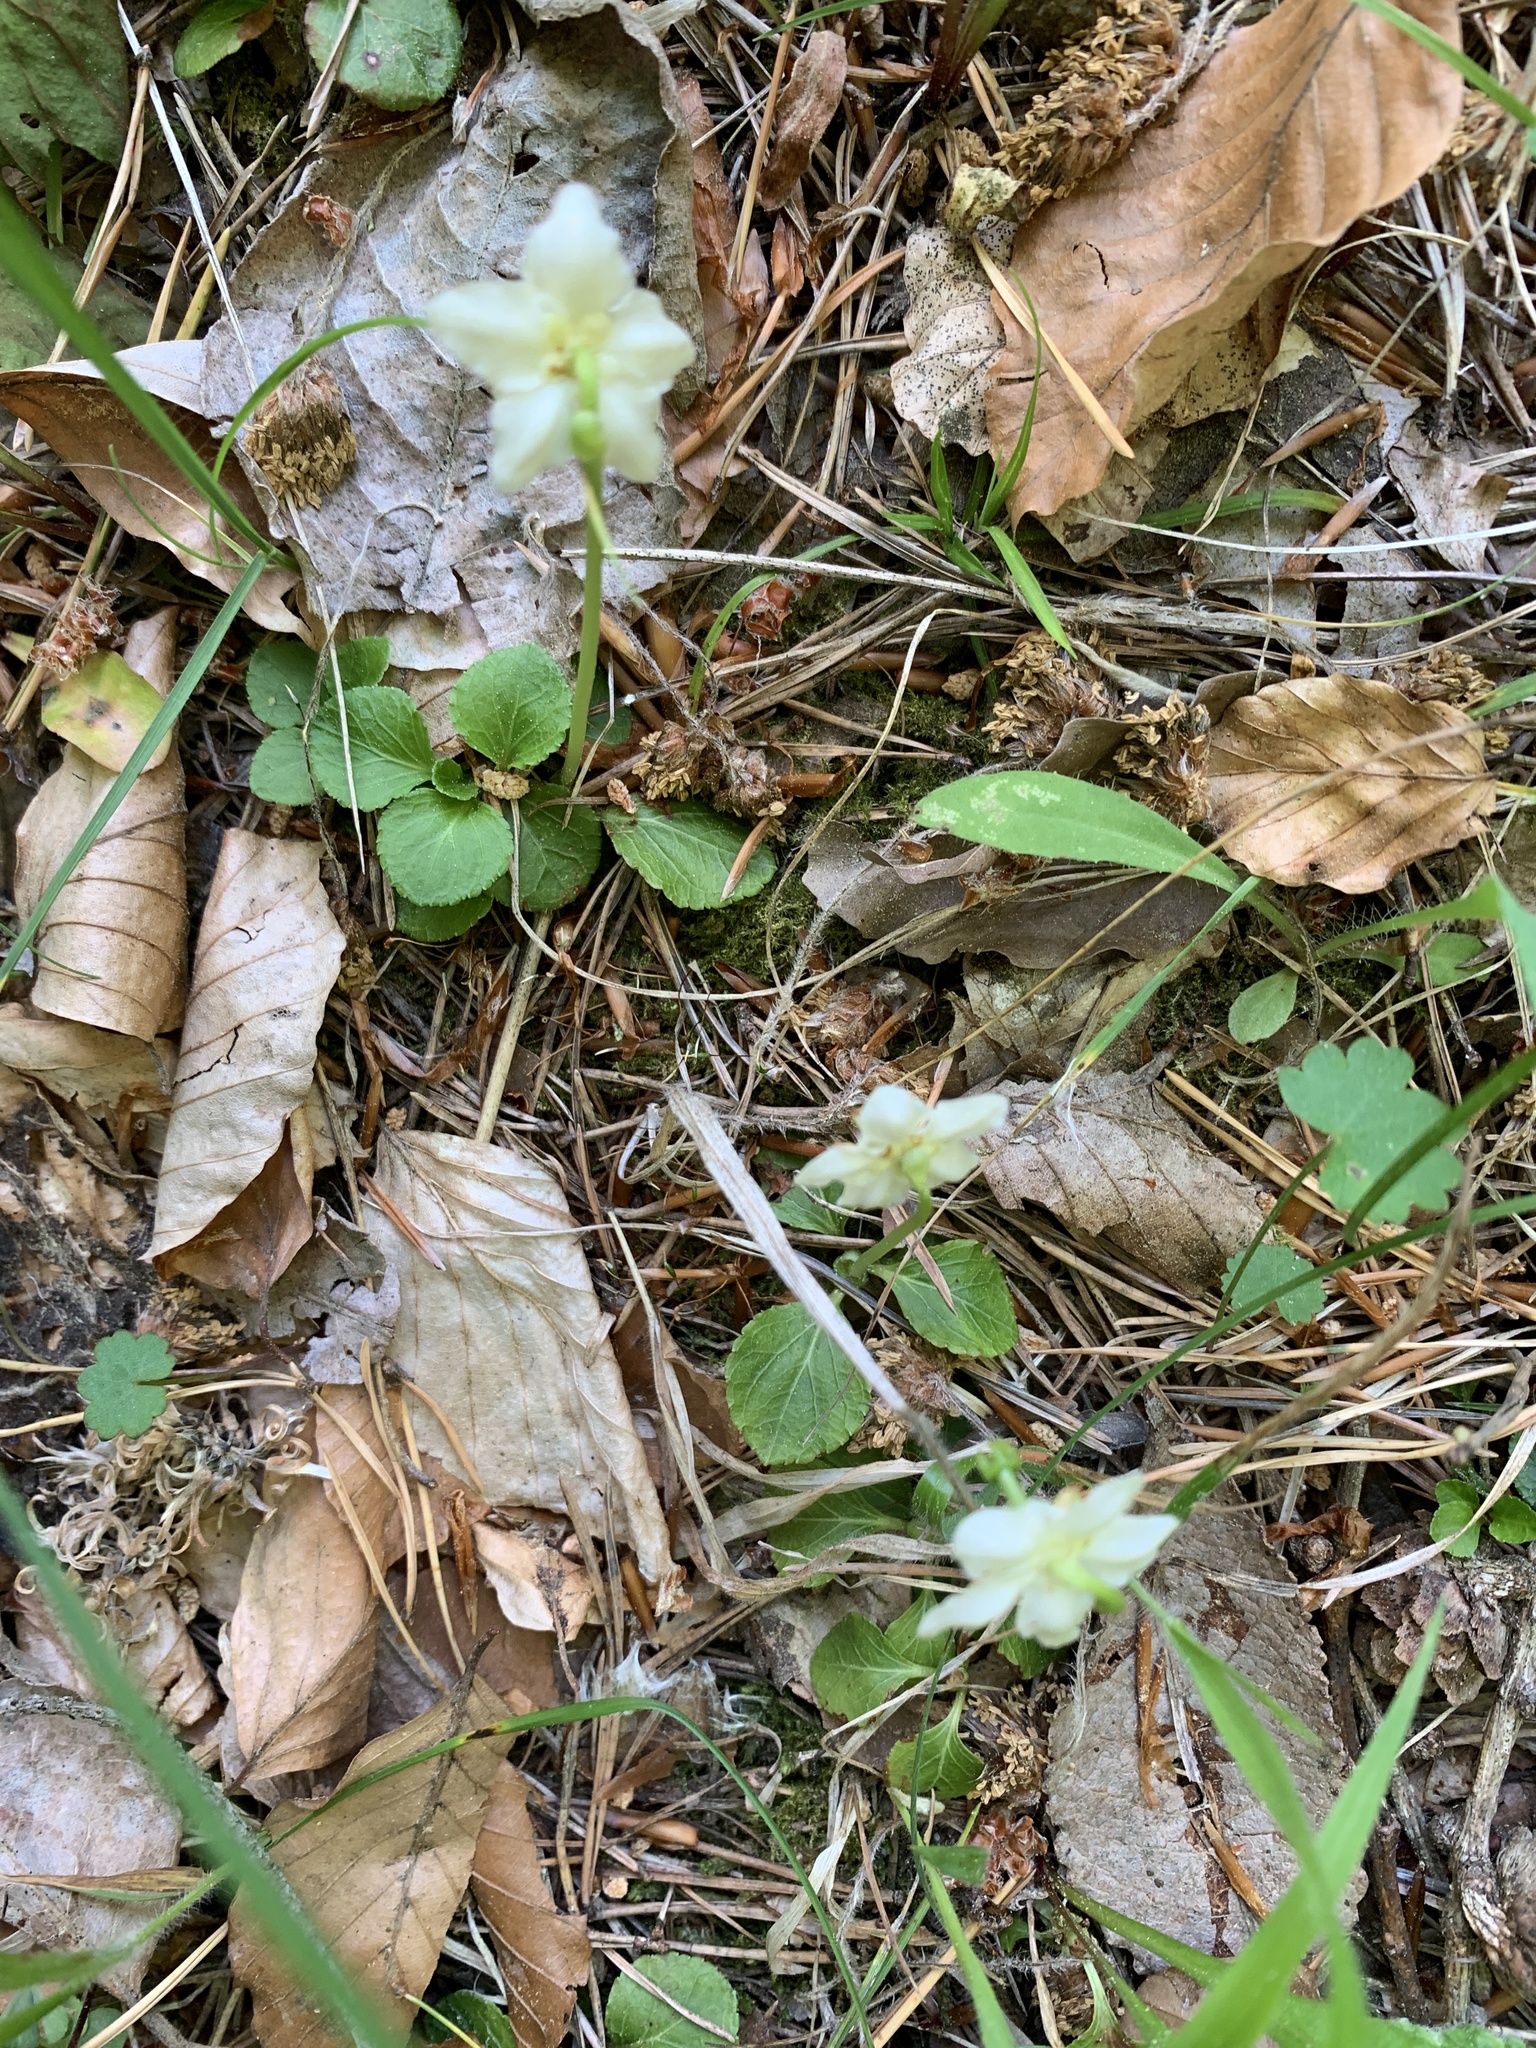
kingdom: Plantae
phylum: Tracheophyta
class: Magnoliopsida
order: Ericales
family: Ericaceae
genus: Moneses
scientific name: Moneses uniflora
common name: One-flowered wintergreen
